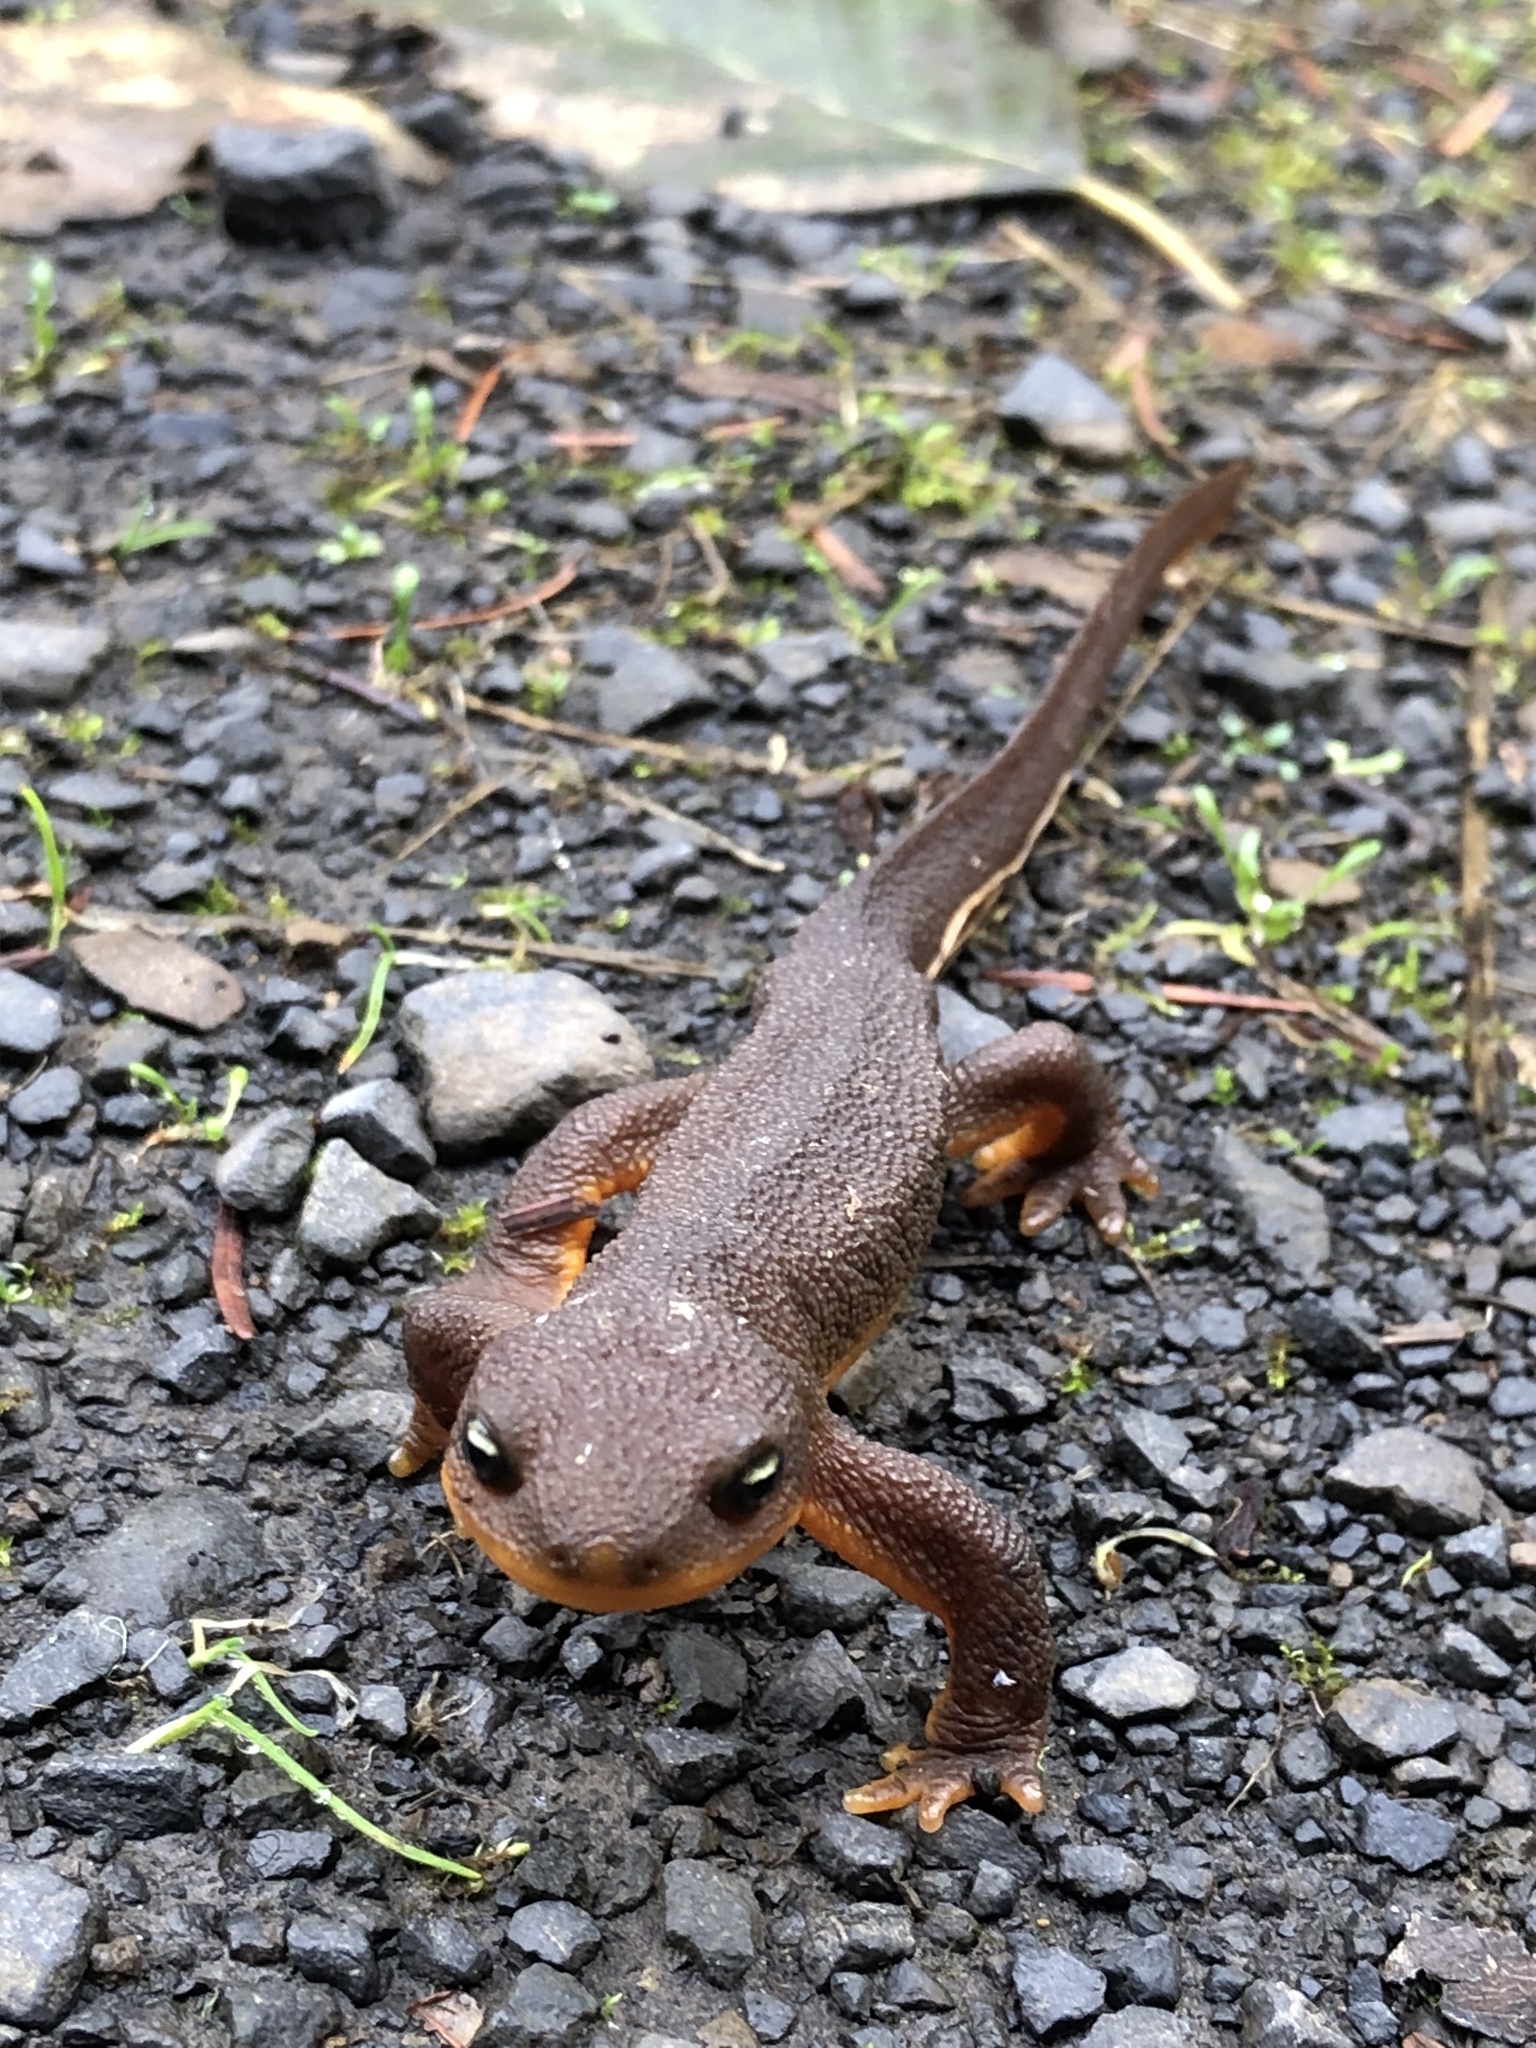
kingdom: Animalia
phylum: Chordata
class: Amphibia
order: Caudata
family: Salamandridae
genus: Taricha
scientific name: Taricha granulosa
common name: Roughskin newt
